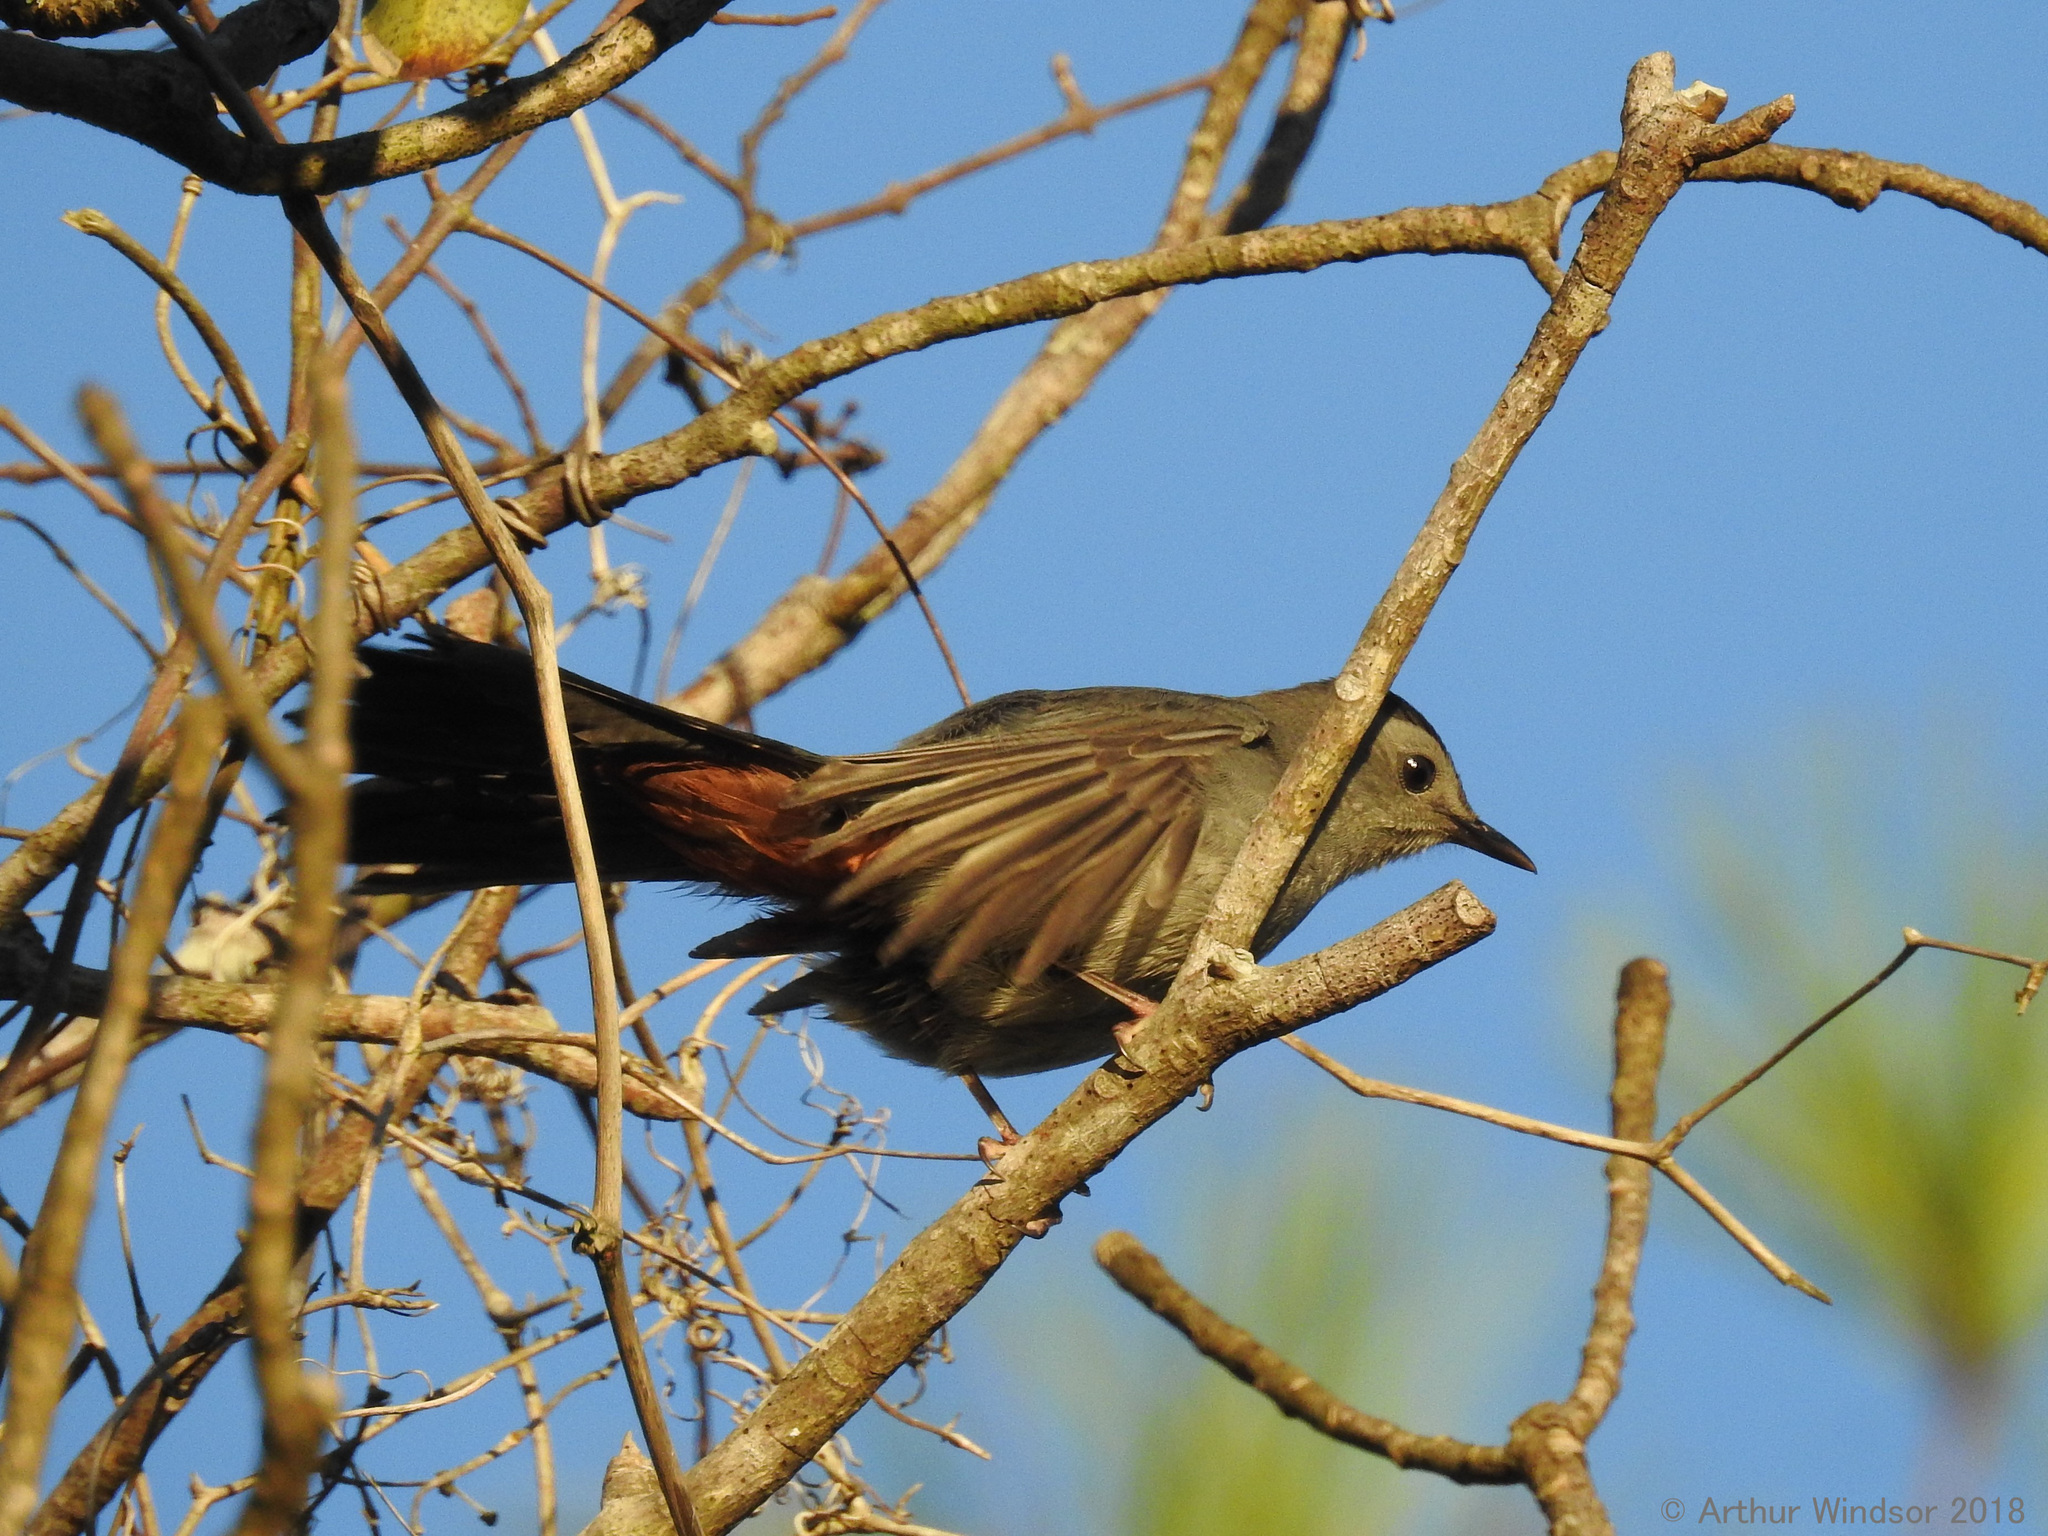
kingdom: Animalia
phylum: Chordata
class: Aves
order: Passeriformes
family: Mimidae
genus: Dumetella
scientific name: Dumetella carolinensis
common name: Gray catbird
